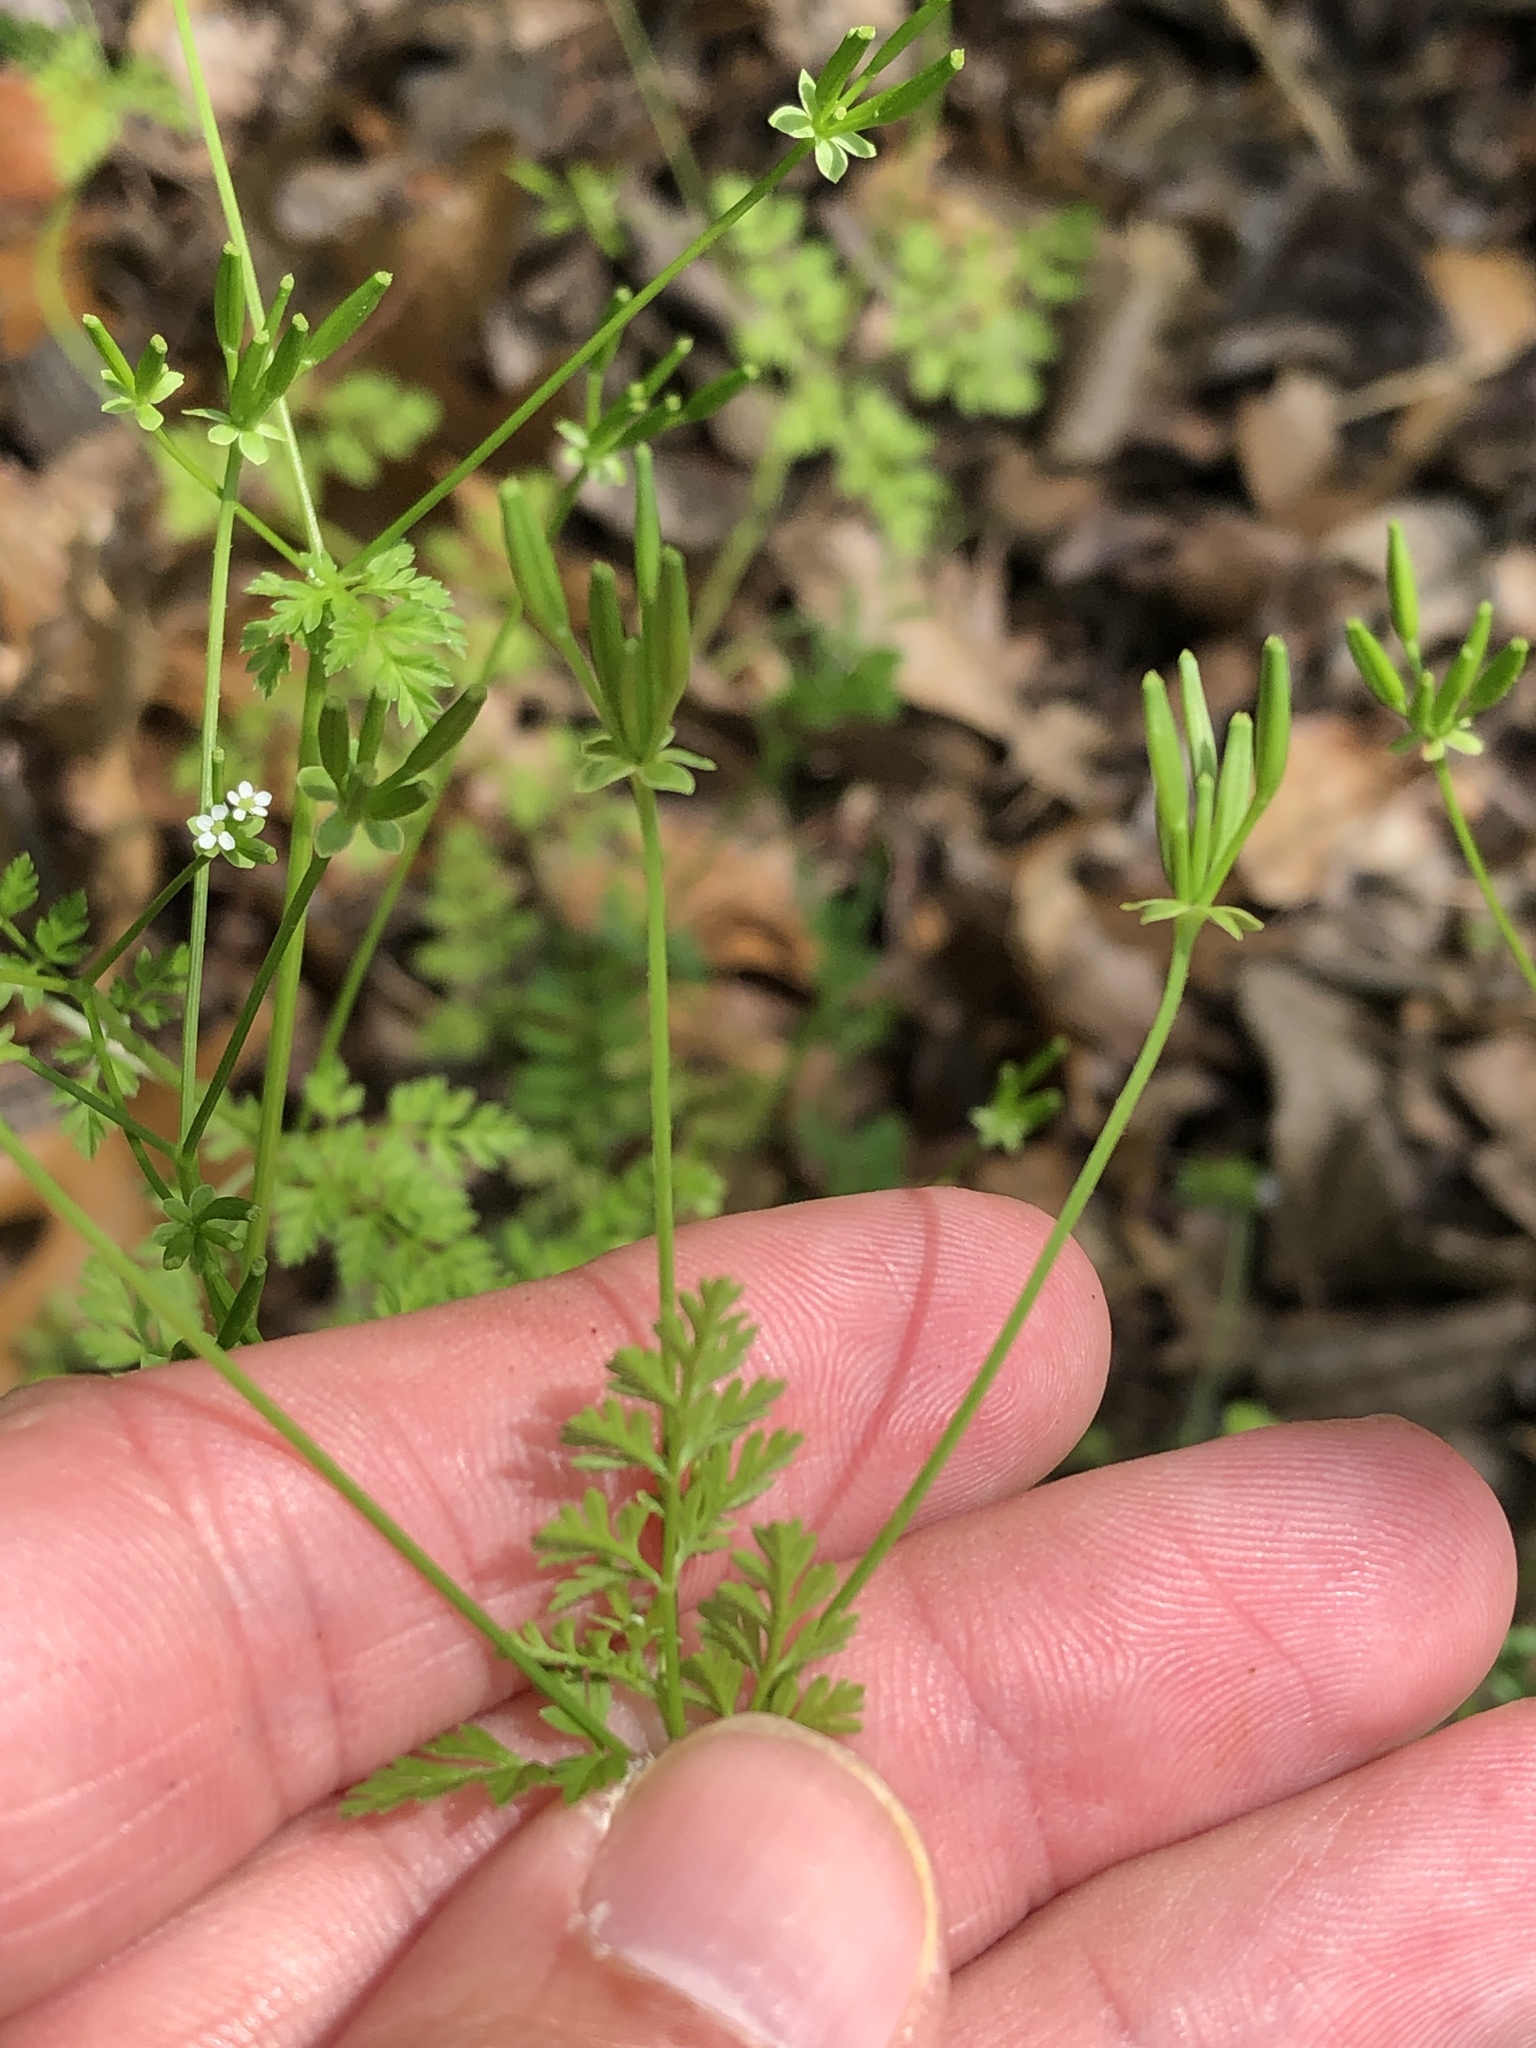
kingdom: Plantae
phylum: Tracheophyta
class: Magnoliopsida
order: Apiales
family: Apiaceae
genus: Chaerophyllum
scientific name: Chaerophyllum tainturieri
